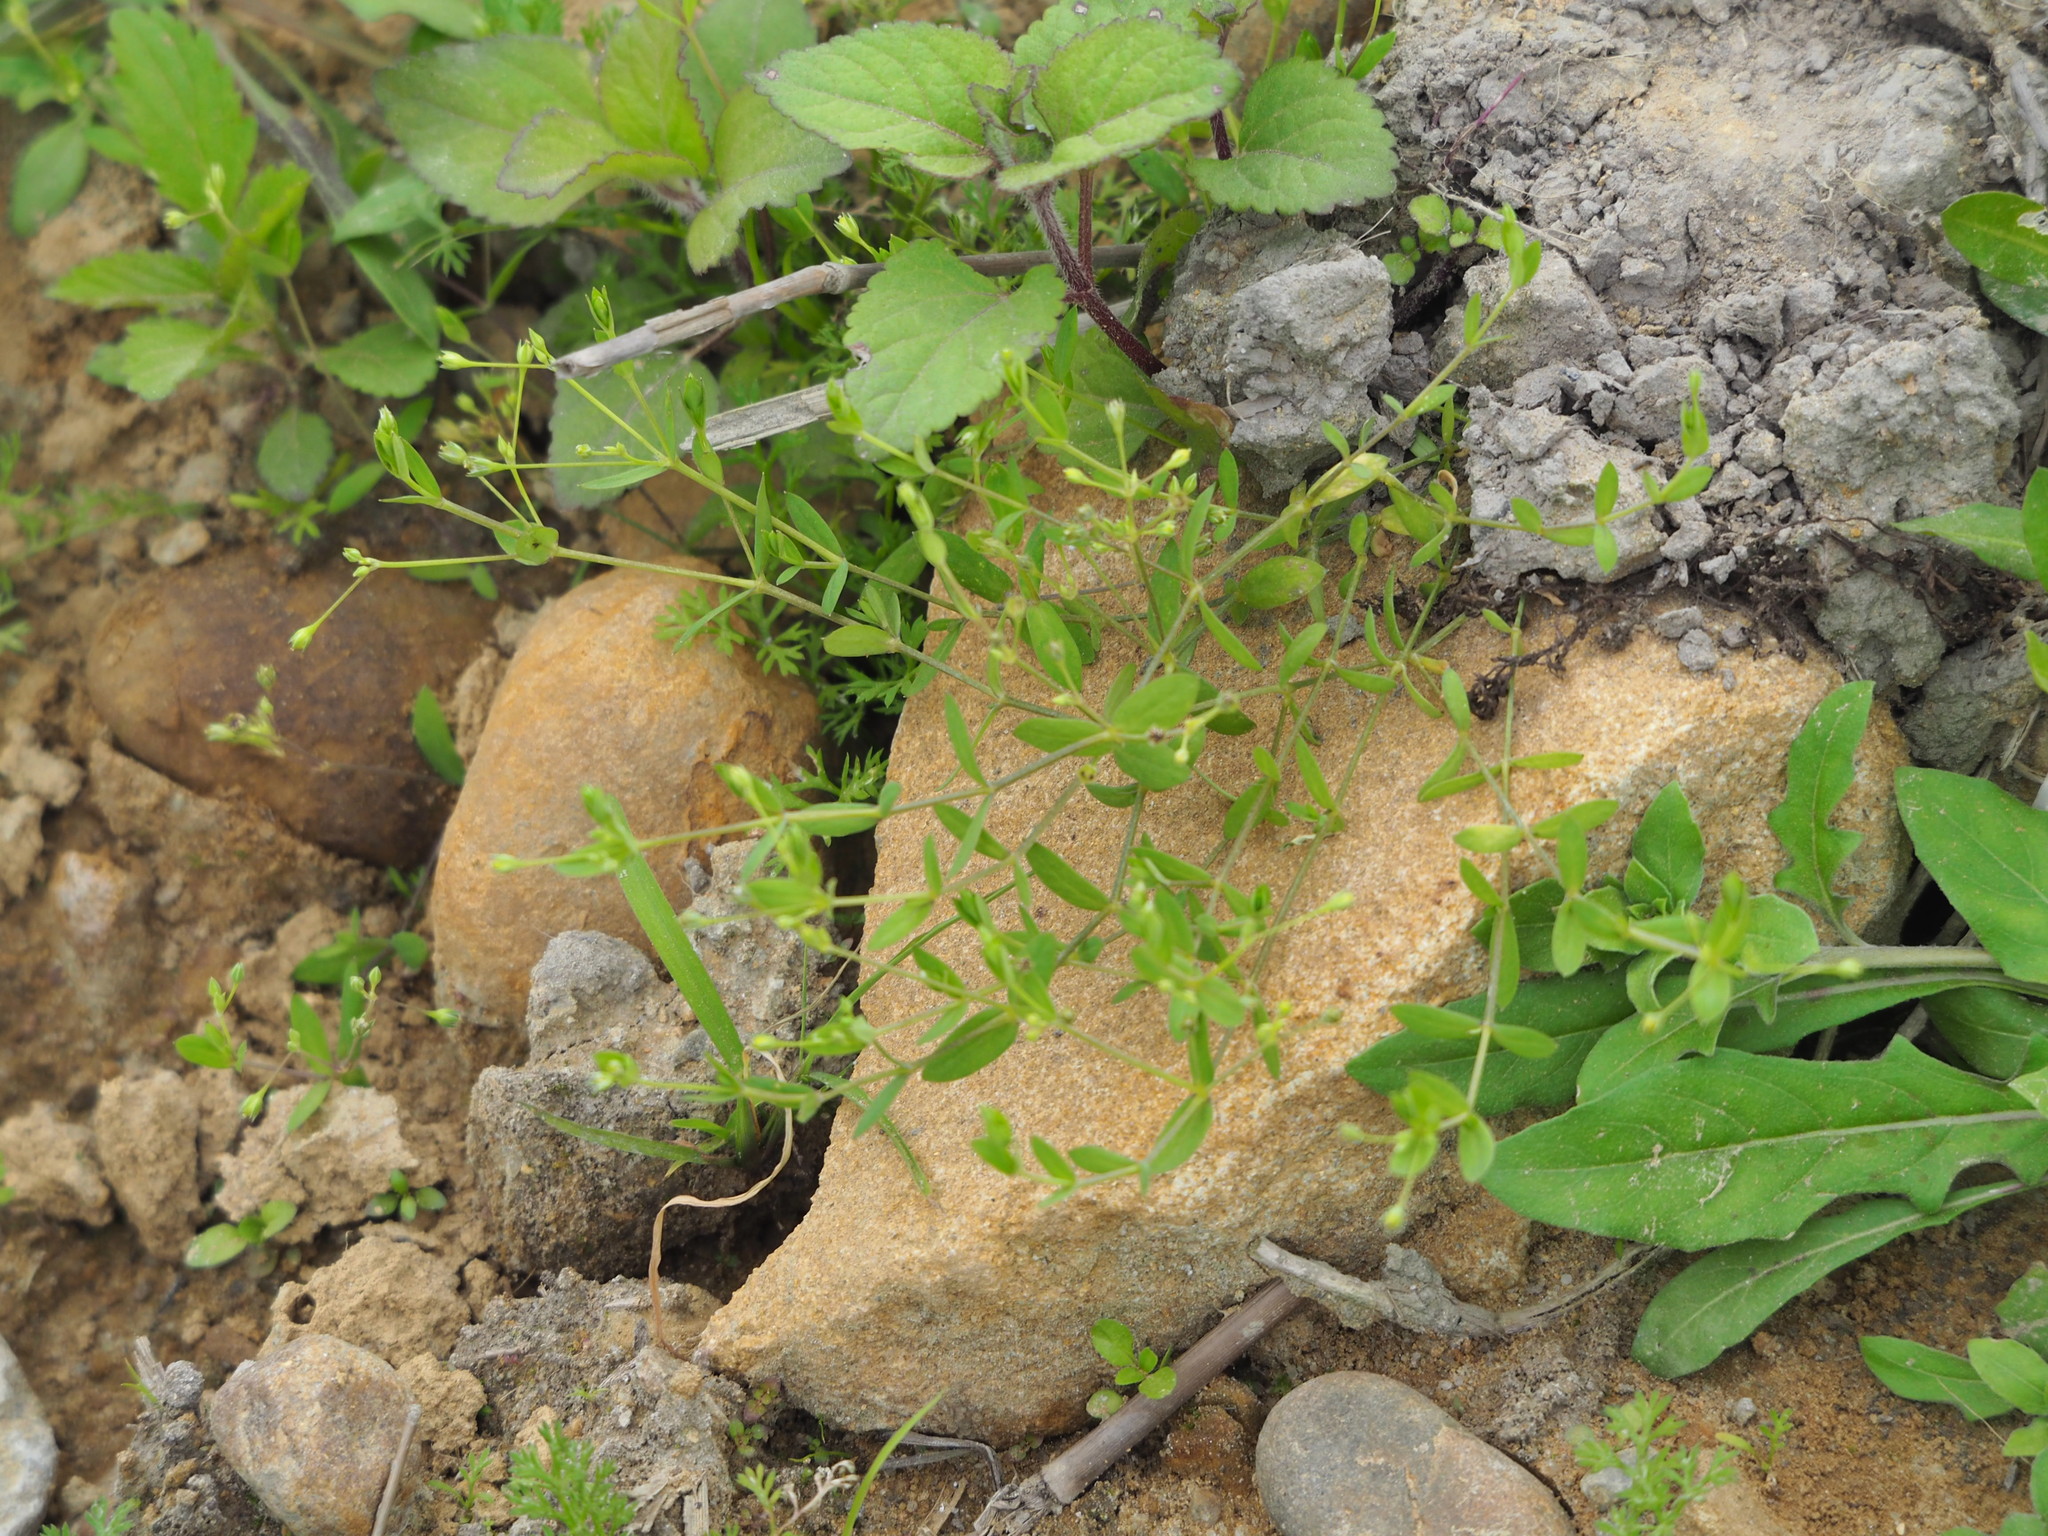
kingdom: Plantae
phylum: Tracheophyta
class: Magnoliopsida
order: Caryophyllales
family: Caryophyllaceae
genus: Stellaria
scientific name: Stellaria alsine
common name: Bog stitchwort
